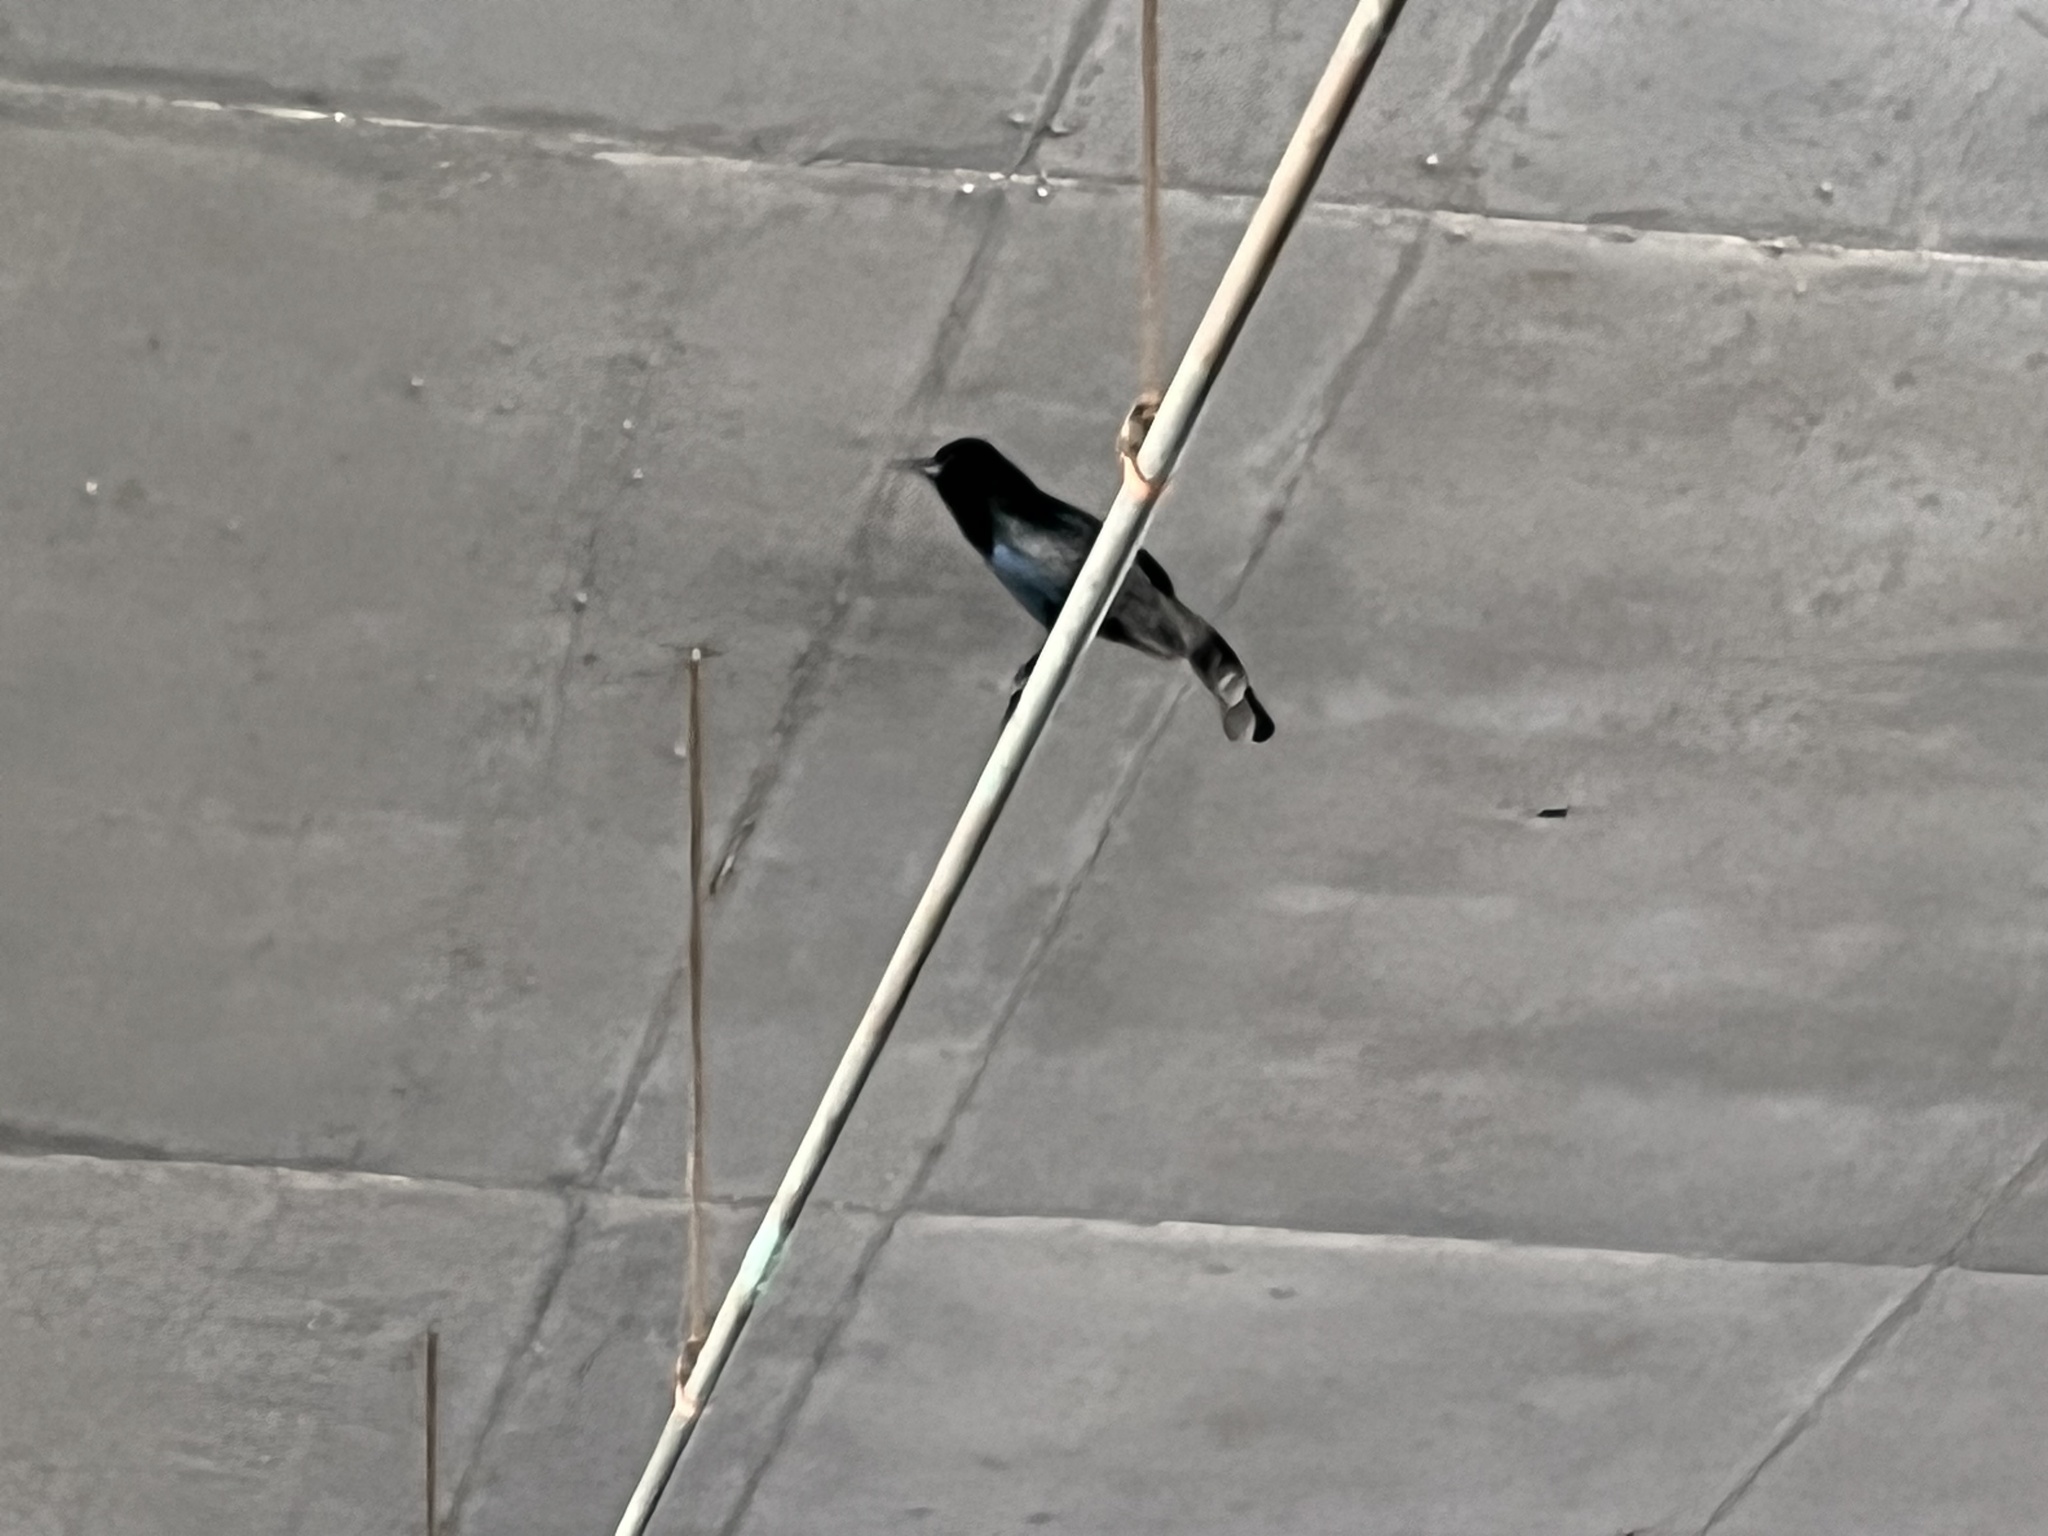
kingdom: Animalia
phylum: Chordata
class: Aves
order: Passeriformes
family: Icteridae
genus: Quiscalus
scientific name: Quiscalus major
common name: Boat-tailed grackle
